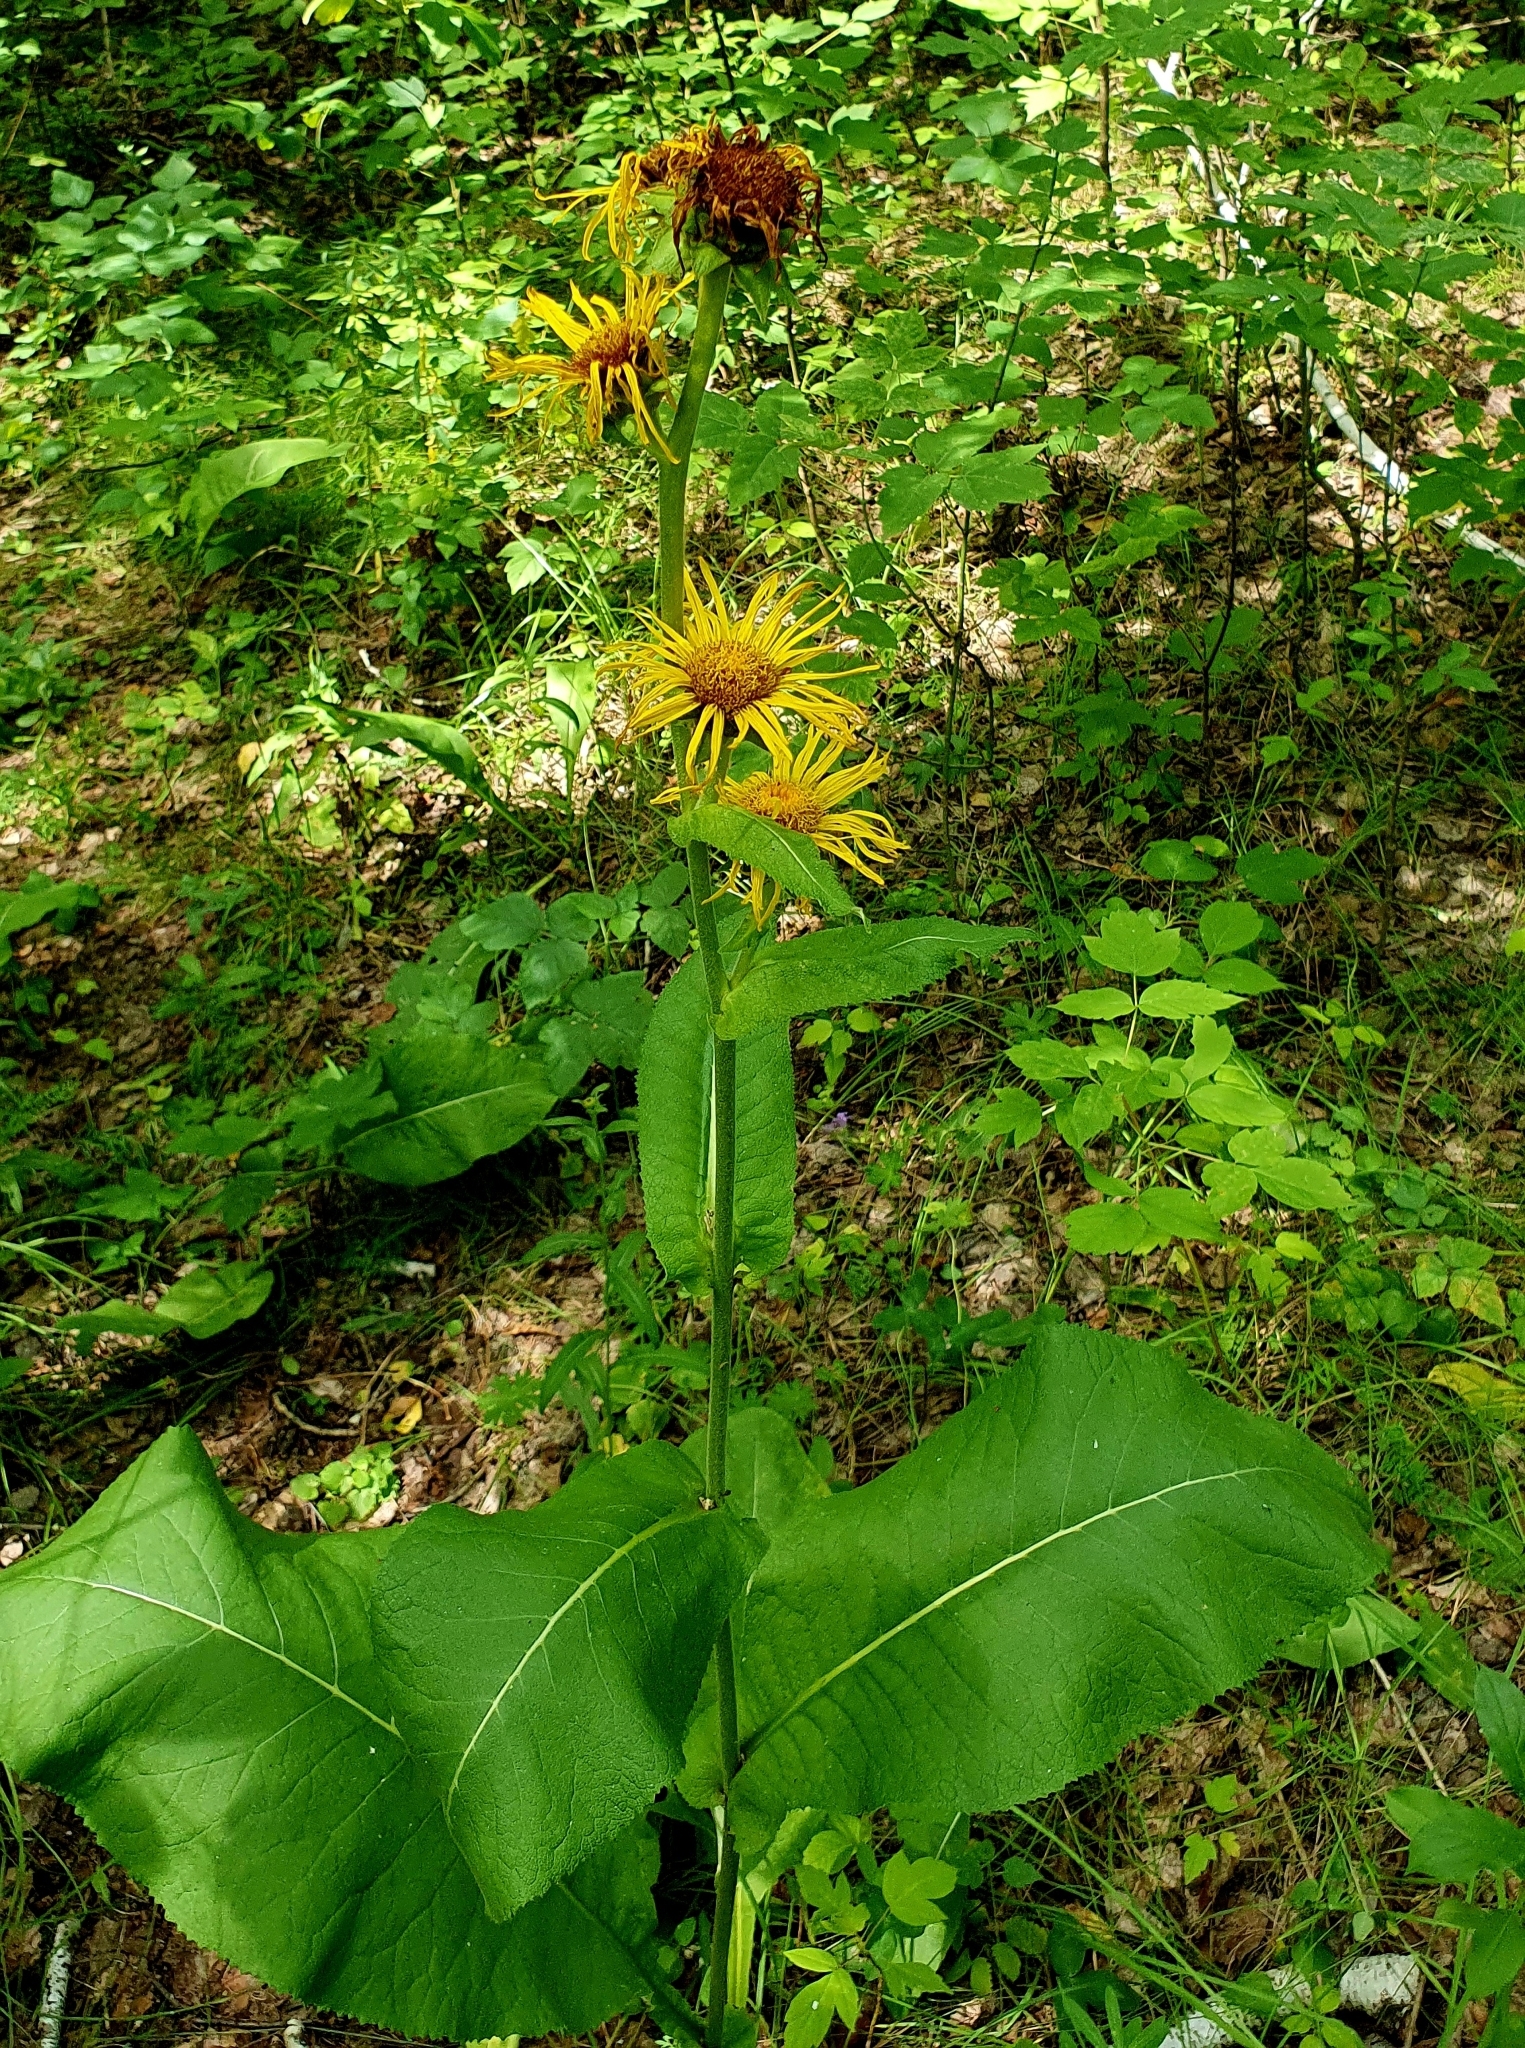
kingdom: Plantae
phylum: Tracheophyta
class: Magnoliopsida
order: Asterales
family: Asteraceae
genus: Inula
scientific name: Inula helenium
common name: Elecampane
